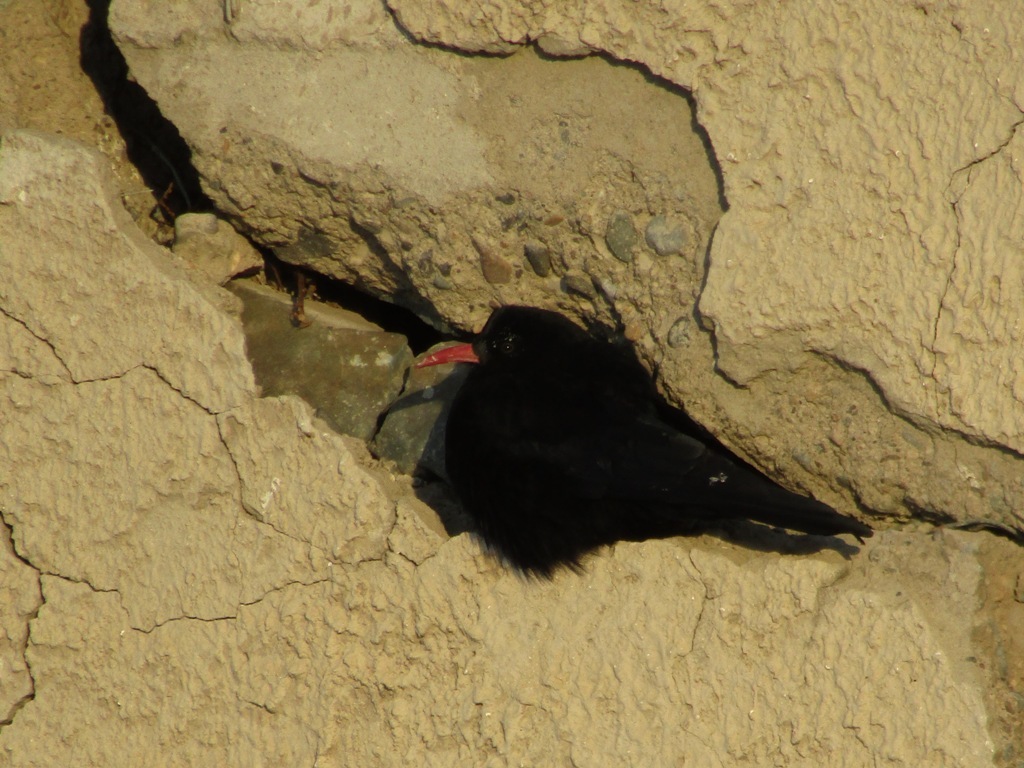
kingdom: Animalia
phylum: Chordata
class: Aves
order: Passeriformes
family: Corvidae
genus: Pyrrhocorax
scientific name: Pyrrhocorax pyrrhocorax
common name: Red-billed chough
